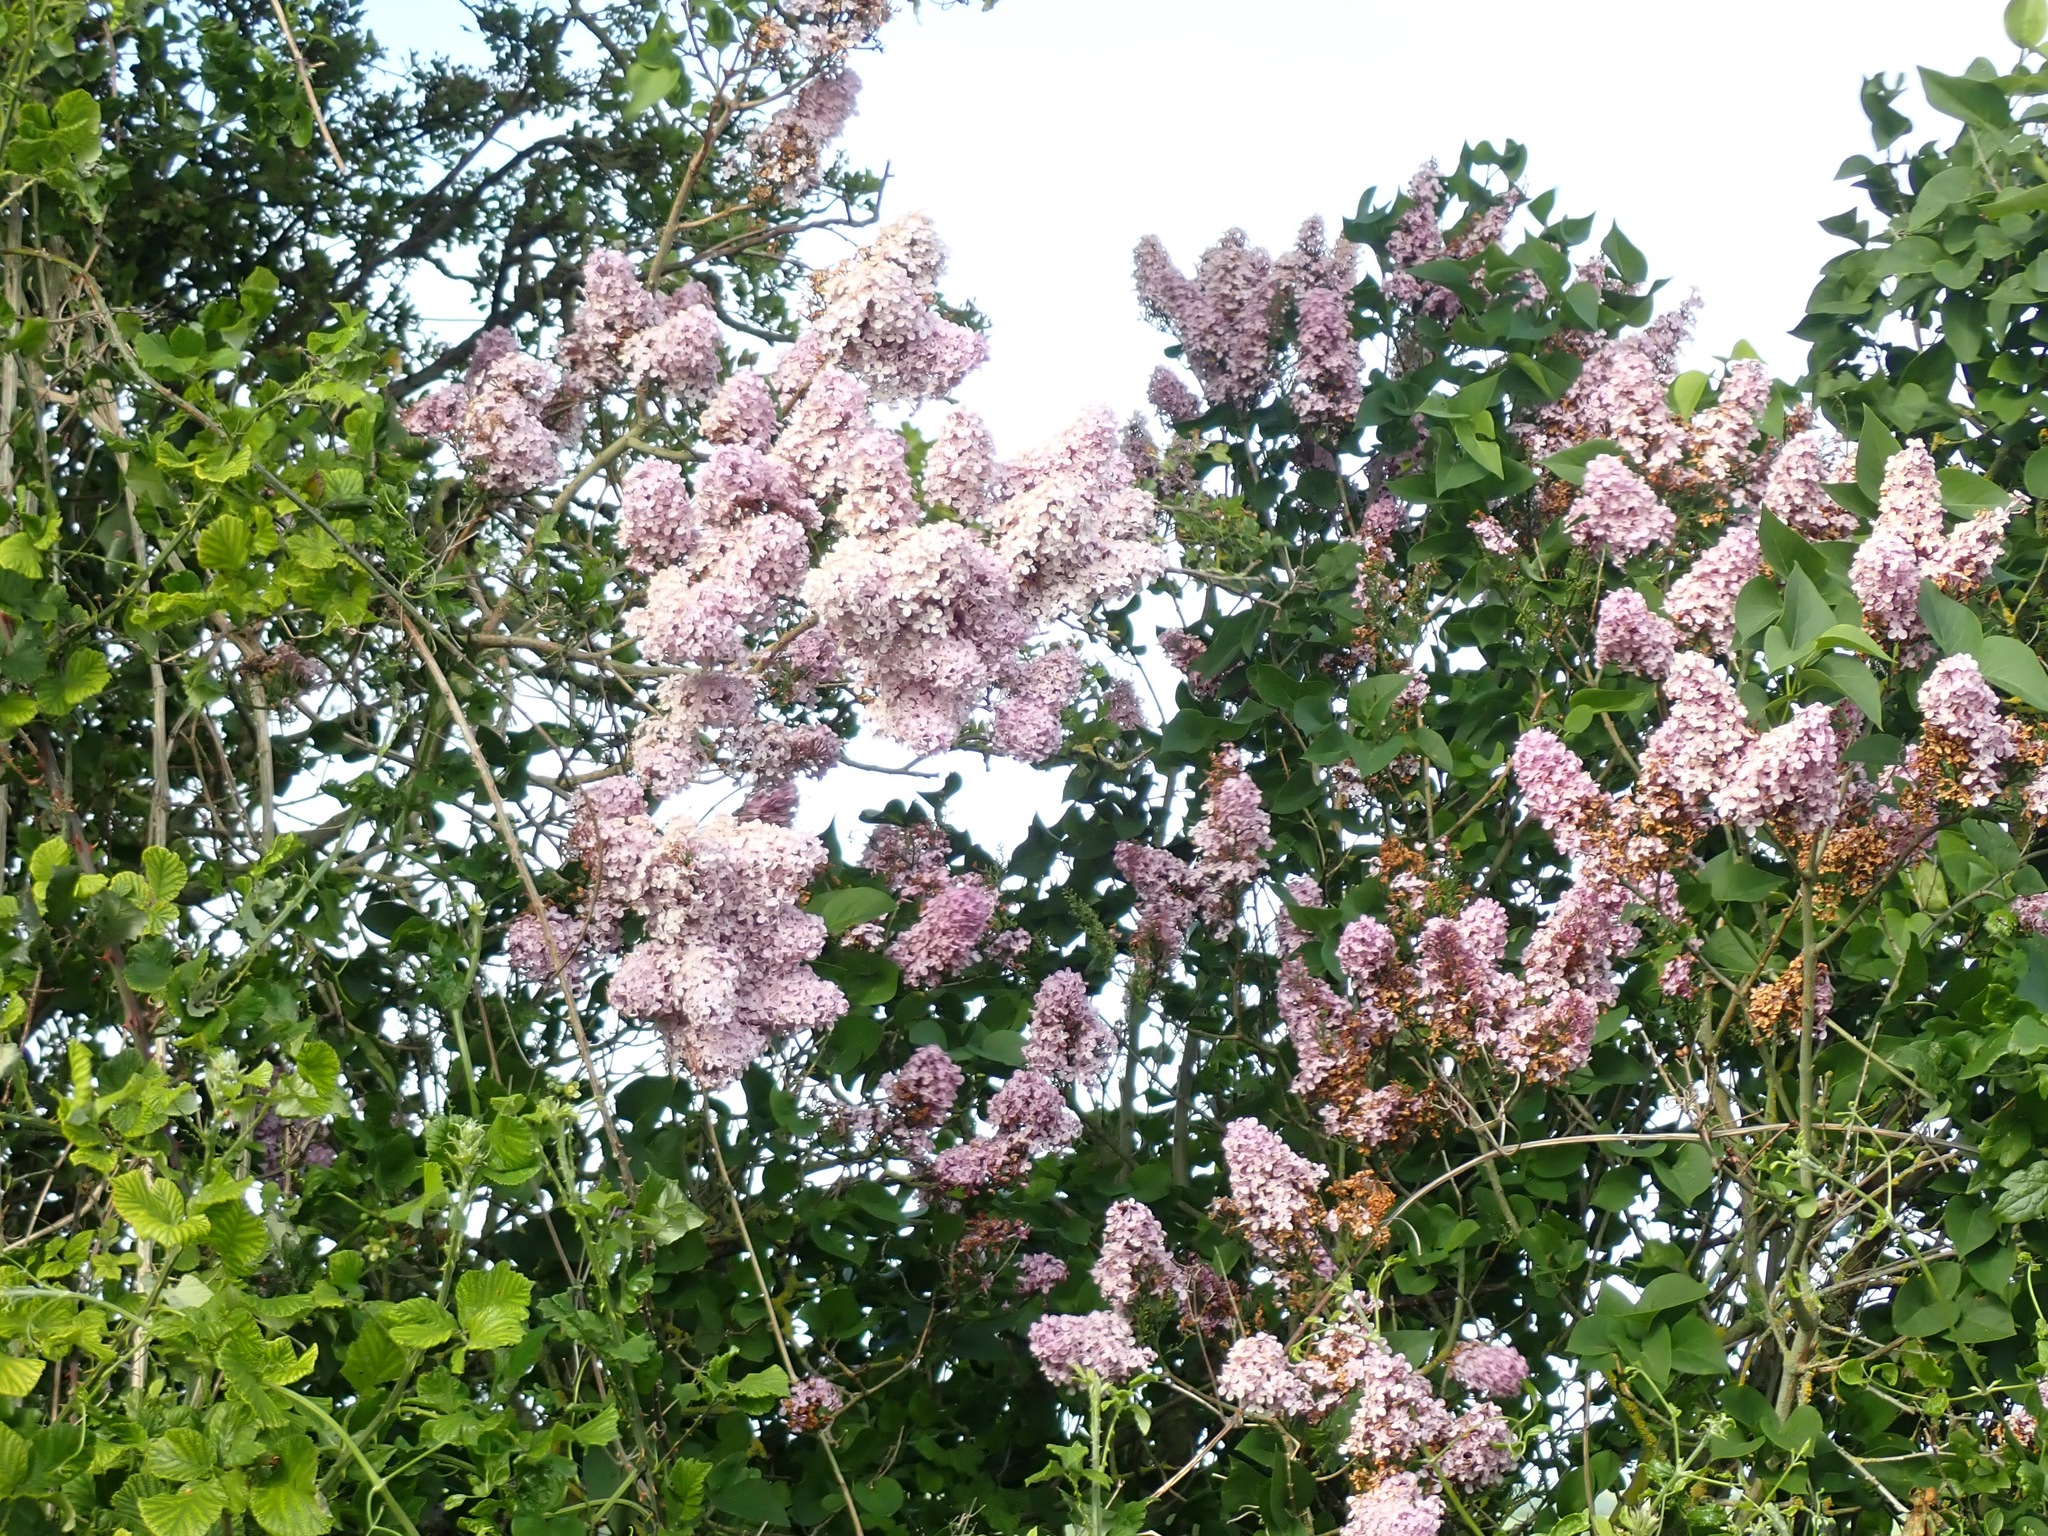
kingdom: Plantae
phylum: Tracheophyta
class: Magnoliopsida
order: Lamiales
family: Oleaceae
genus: Syringa
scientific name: Syringa vulgaris
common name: Common lilac
